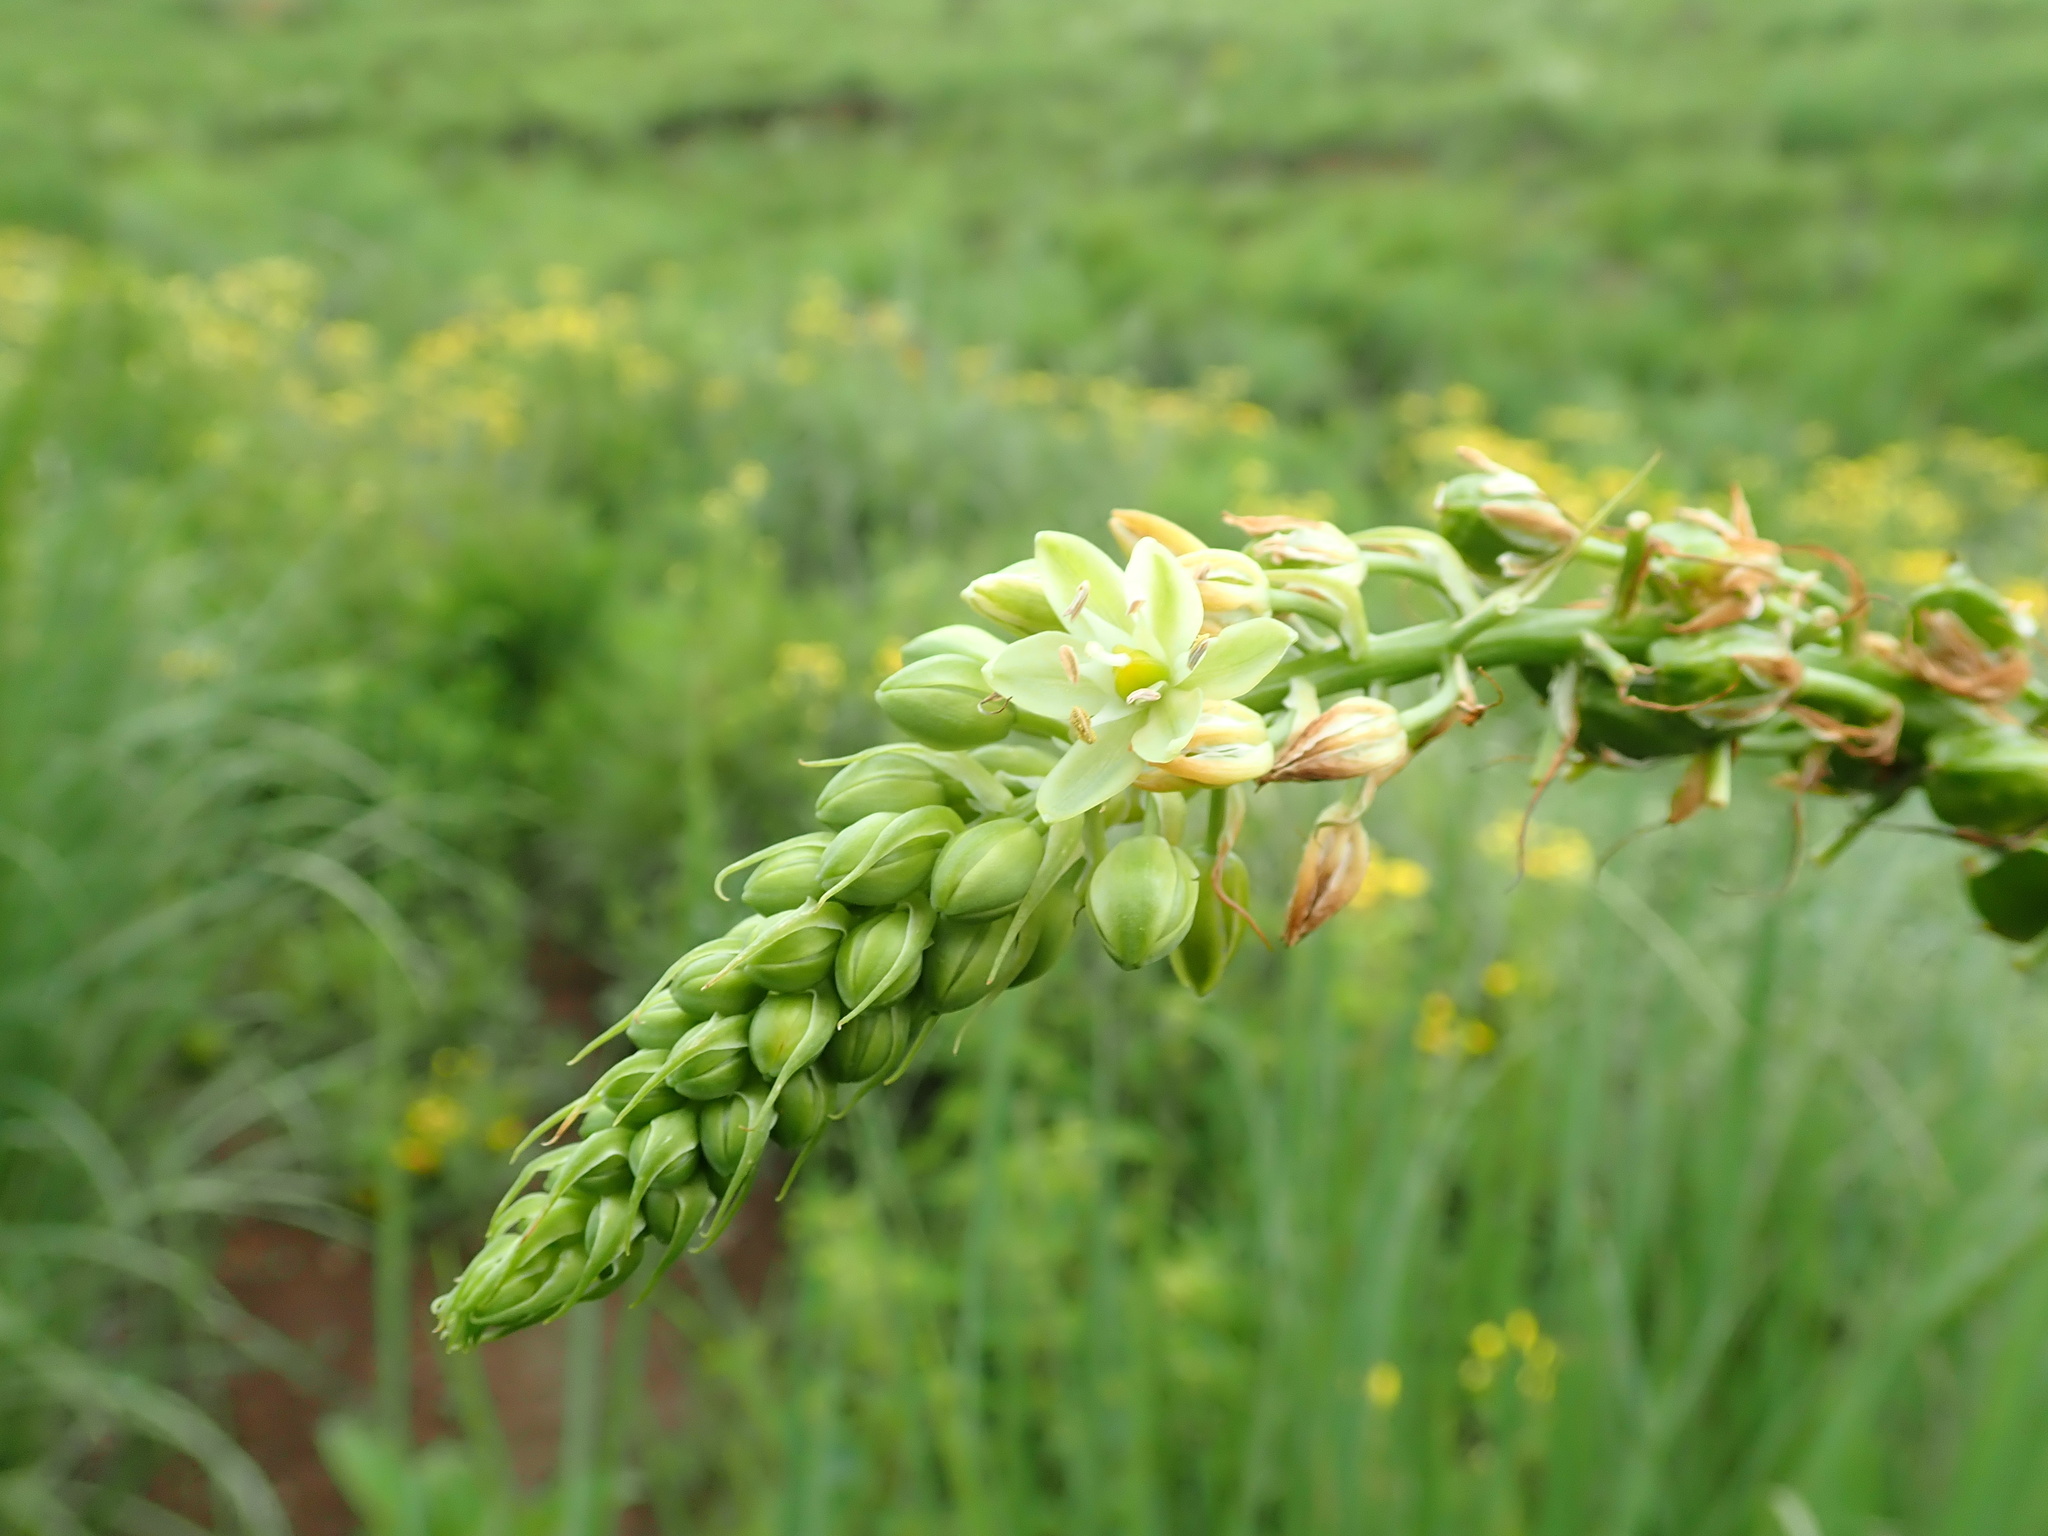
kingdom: Plantae
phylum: Tracheophyta
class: Liliopsida
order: Asparagales
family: Asparagaceae
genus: Albuca
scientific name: Albuca virens
